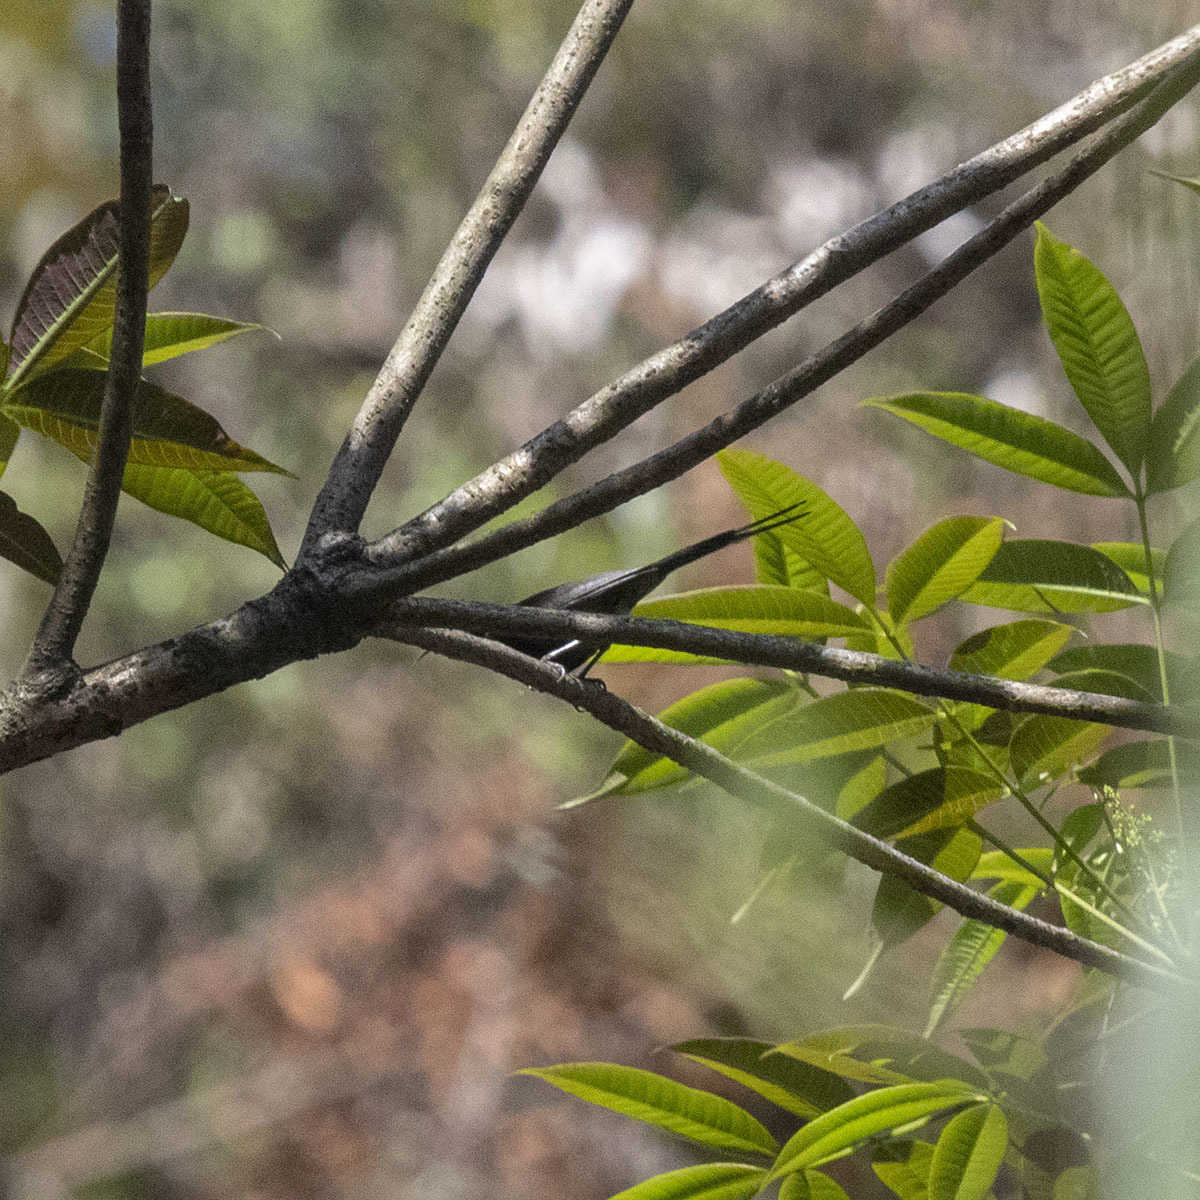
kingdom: Animalia
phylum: Chordata
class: Aves
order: Passeriformes
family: Nectariniidae
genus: Aethopyga
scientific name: Aethopyga saturata
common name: Black-throated sunbird
